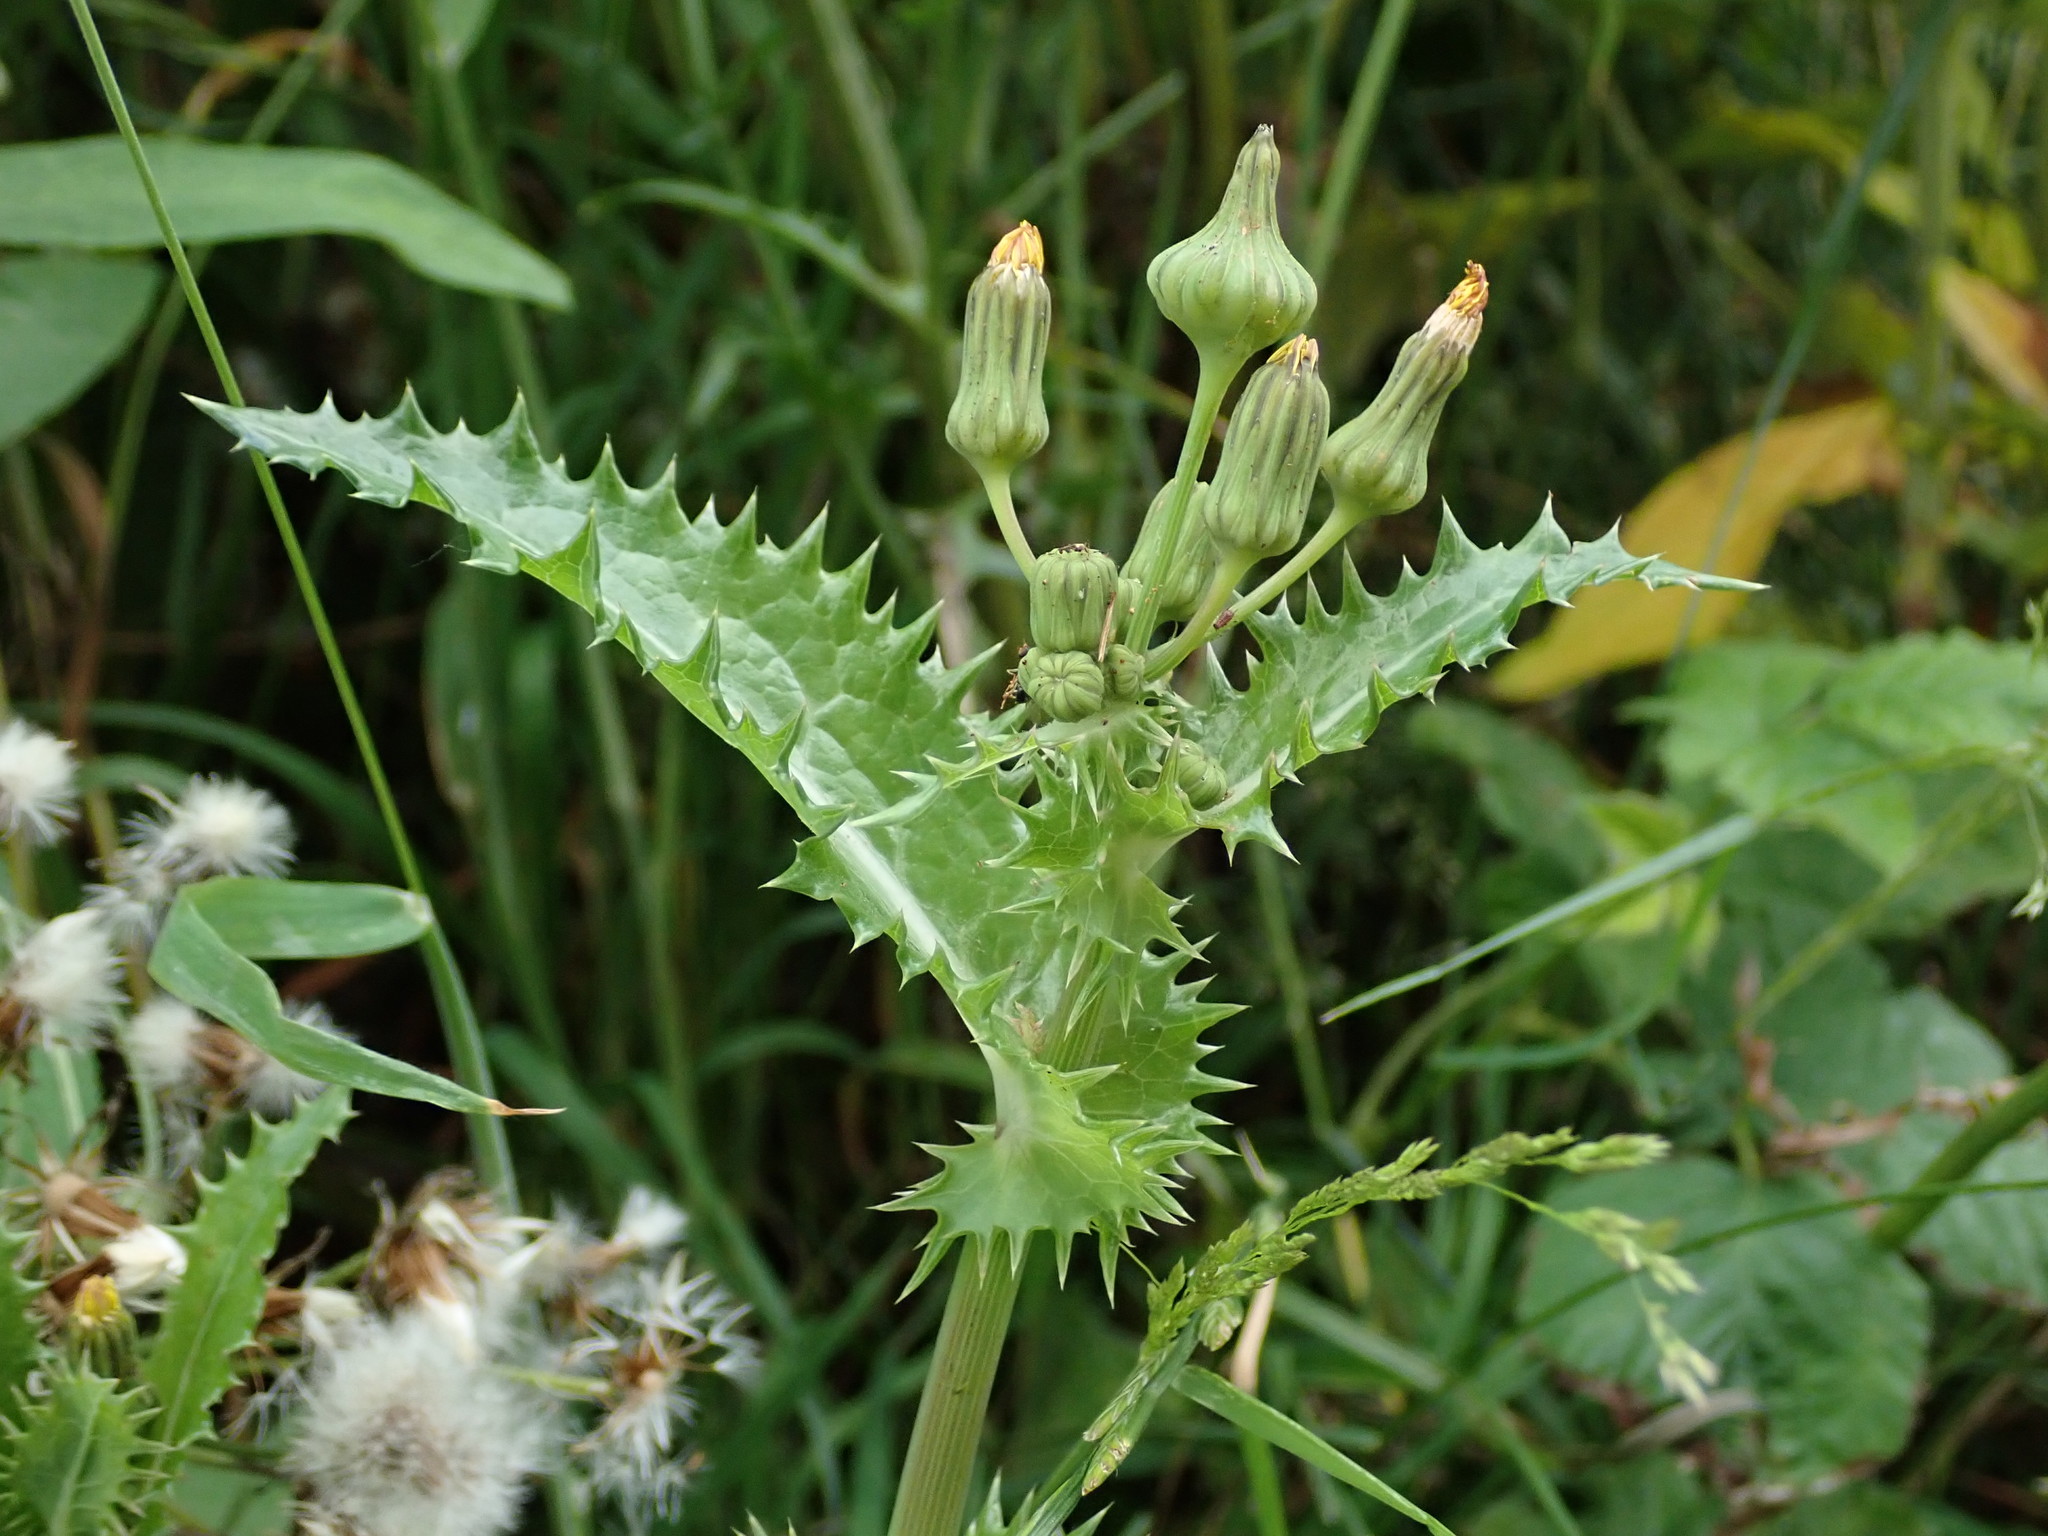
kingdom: Plantae
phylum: Tracheophyta
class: Magnoliopsida
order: Asterales
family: Asteraceae
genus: Sonchus
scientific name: Sonchus asper
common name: Prickly sow-thistle
